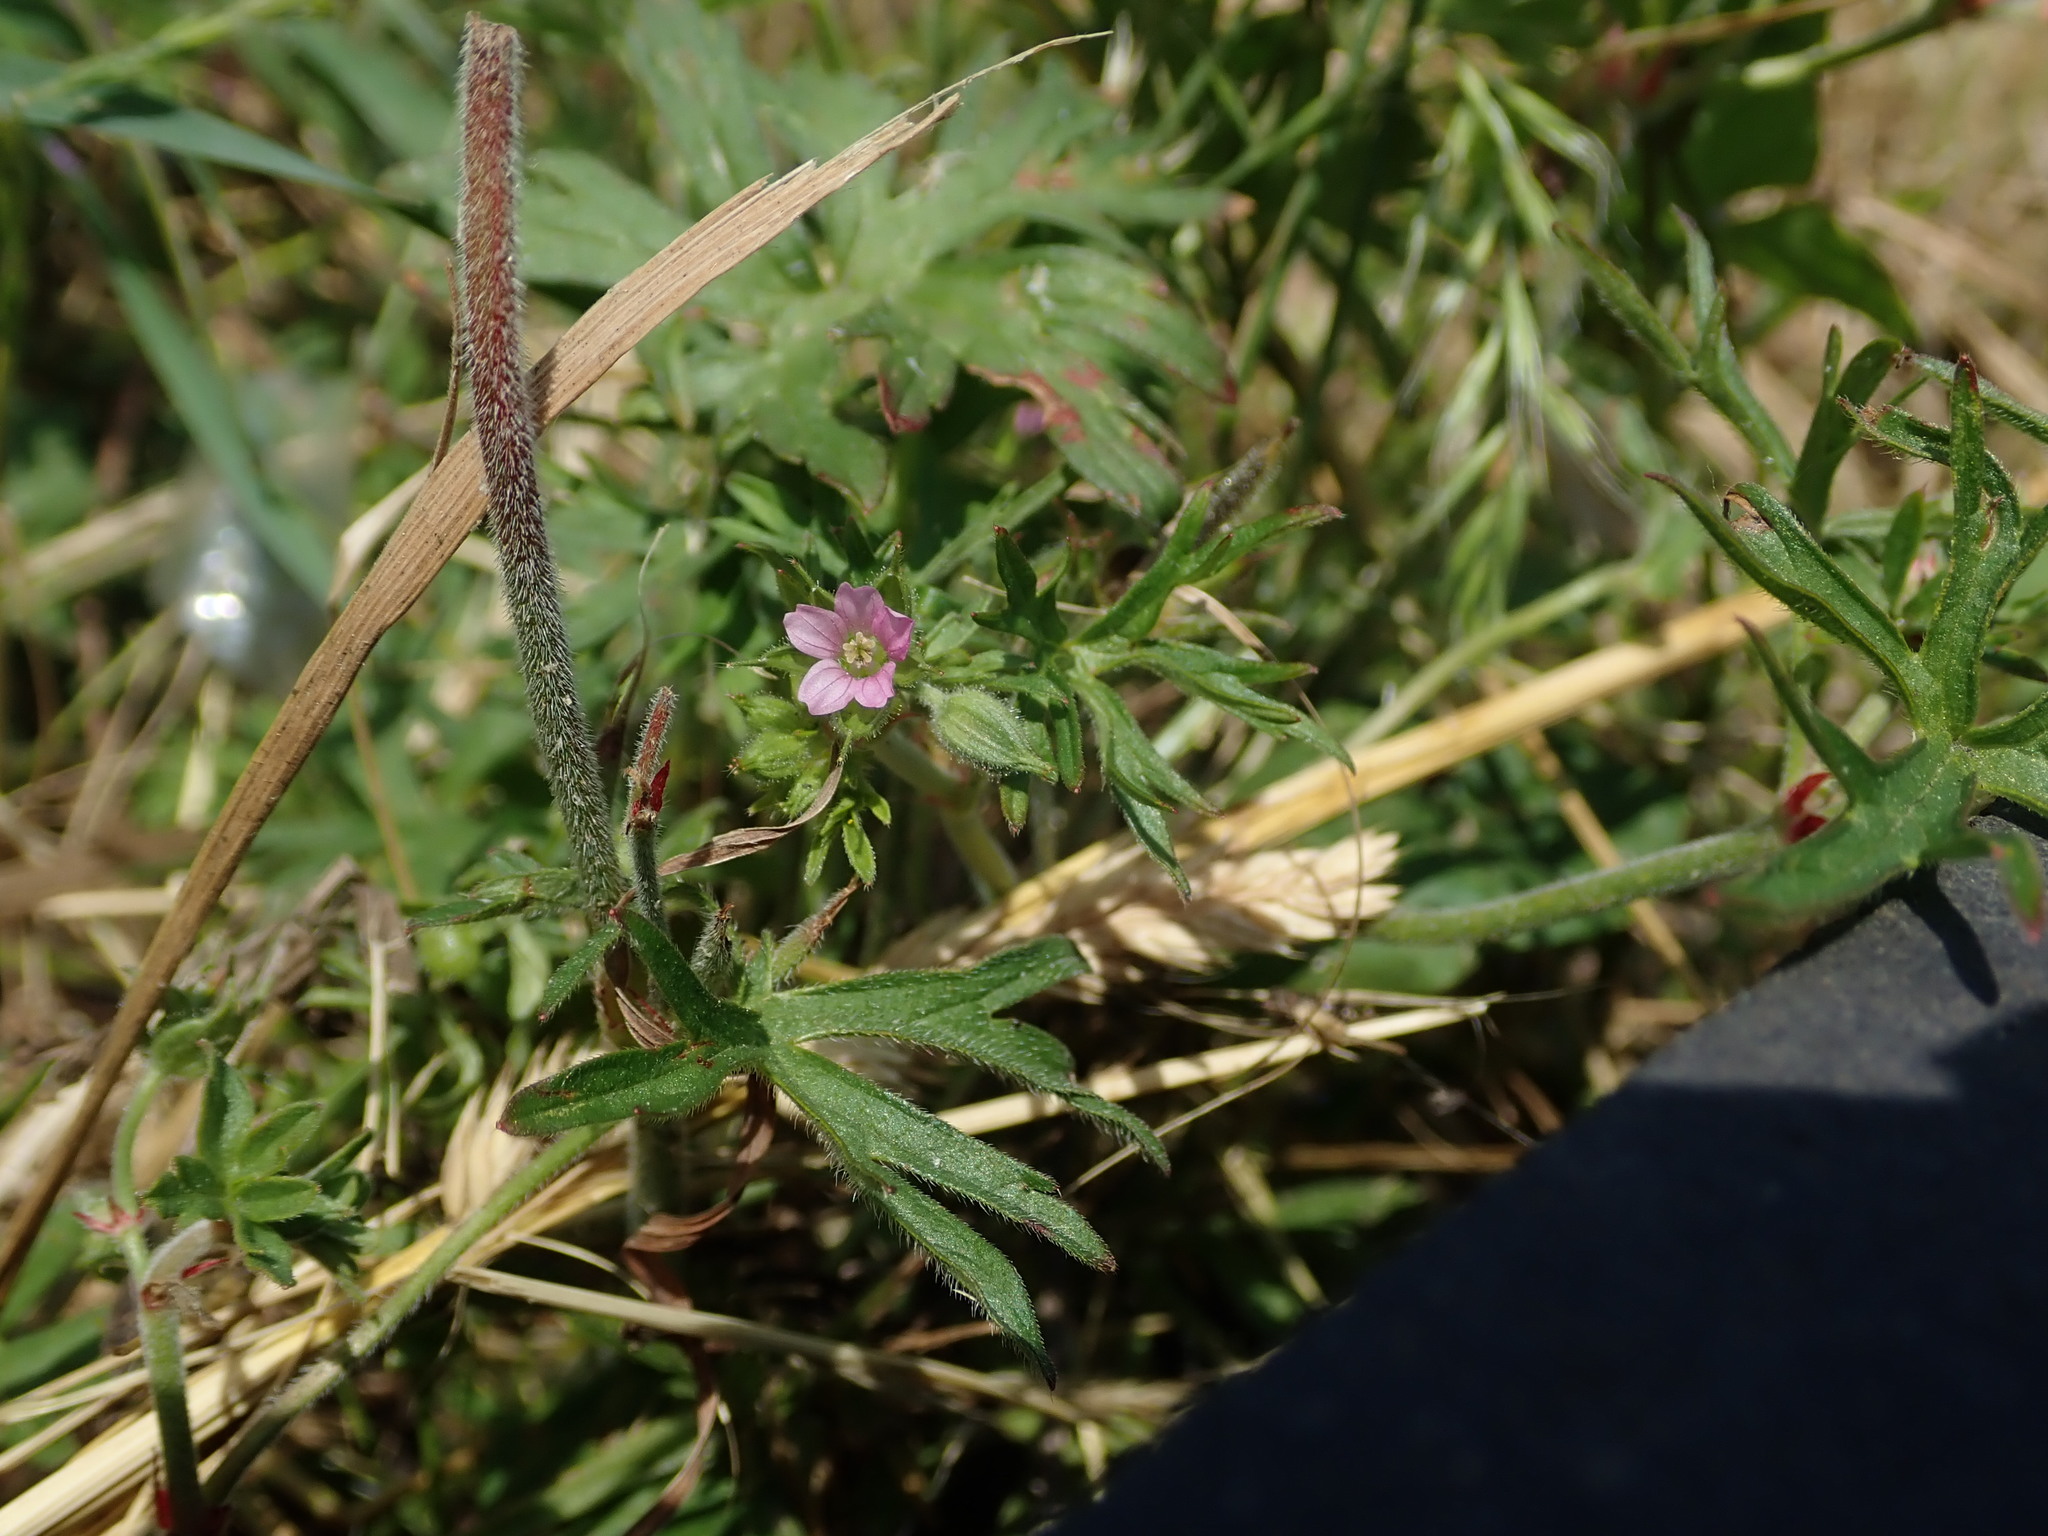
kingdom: Plantae
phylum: Tracheophyta
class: Magnoliopsida
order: Geraniales
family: Geraniaceae
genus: Geranium
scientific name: Geranium dissectum
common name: Cut-leaved crane's-bill
